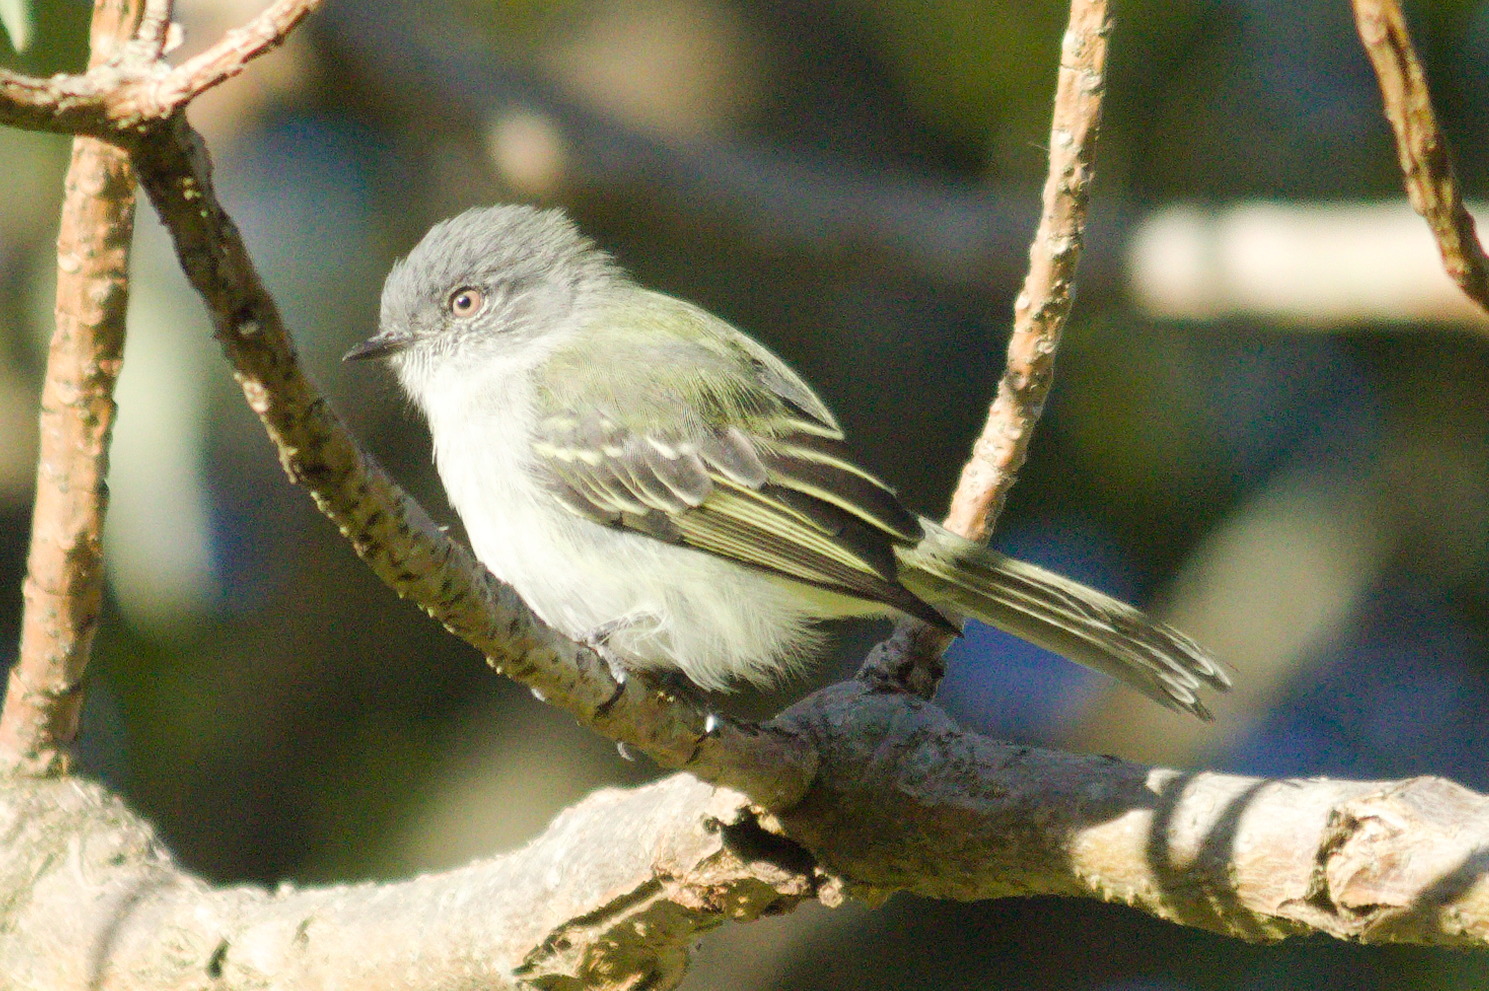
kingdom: Animalia
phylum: Chordata
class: Aves
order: Passeriformes
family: Tyrannidae
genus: Myiopagis
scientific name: Myiopagis caniceps
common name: Gray elaenia
